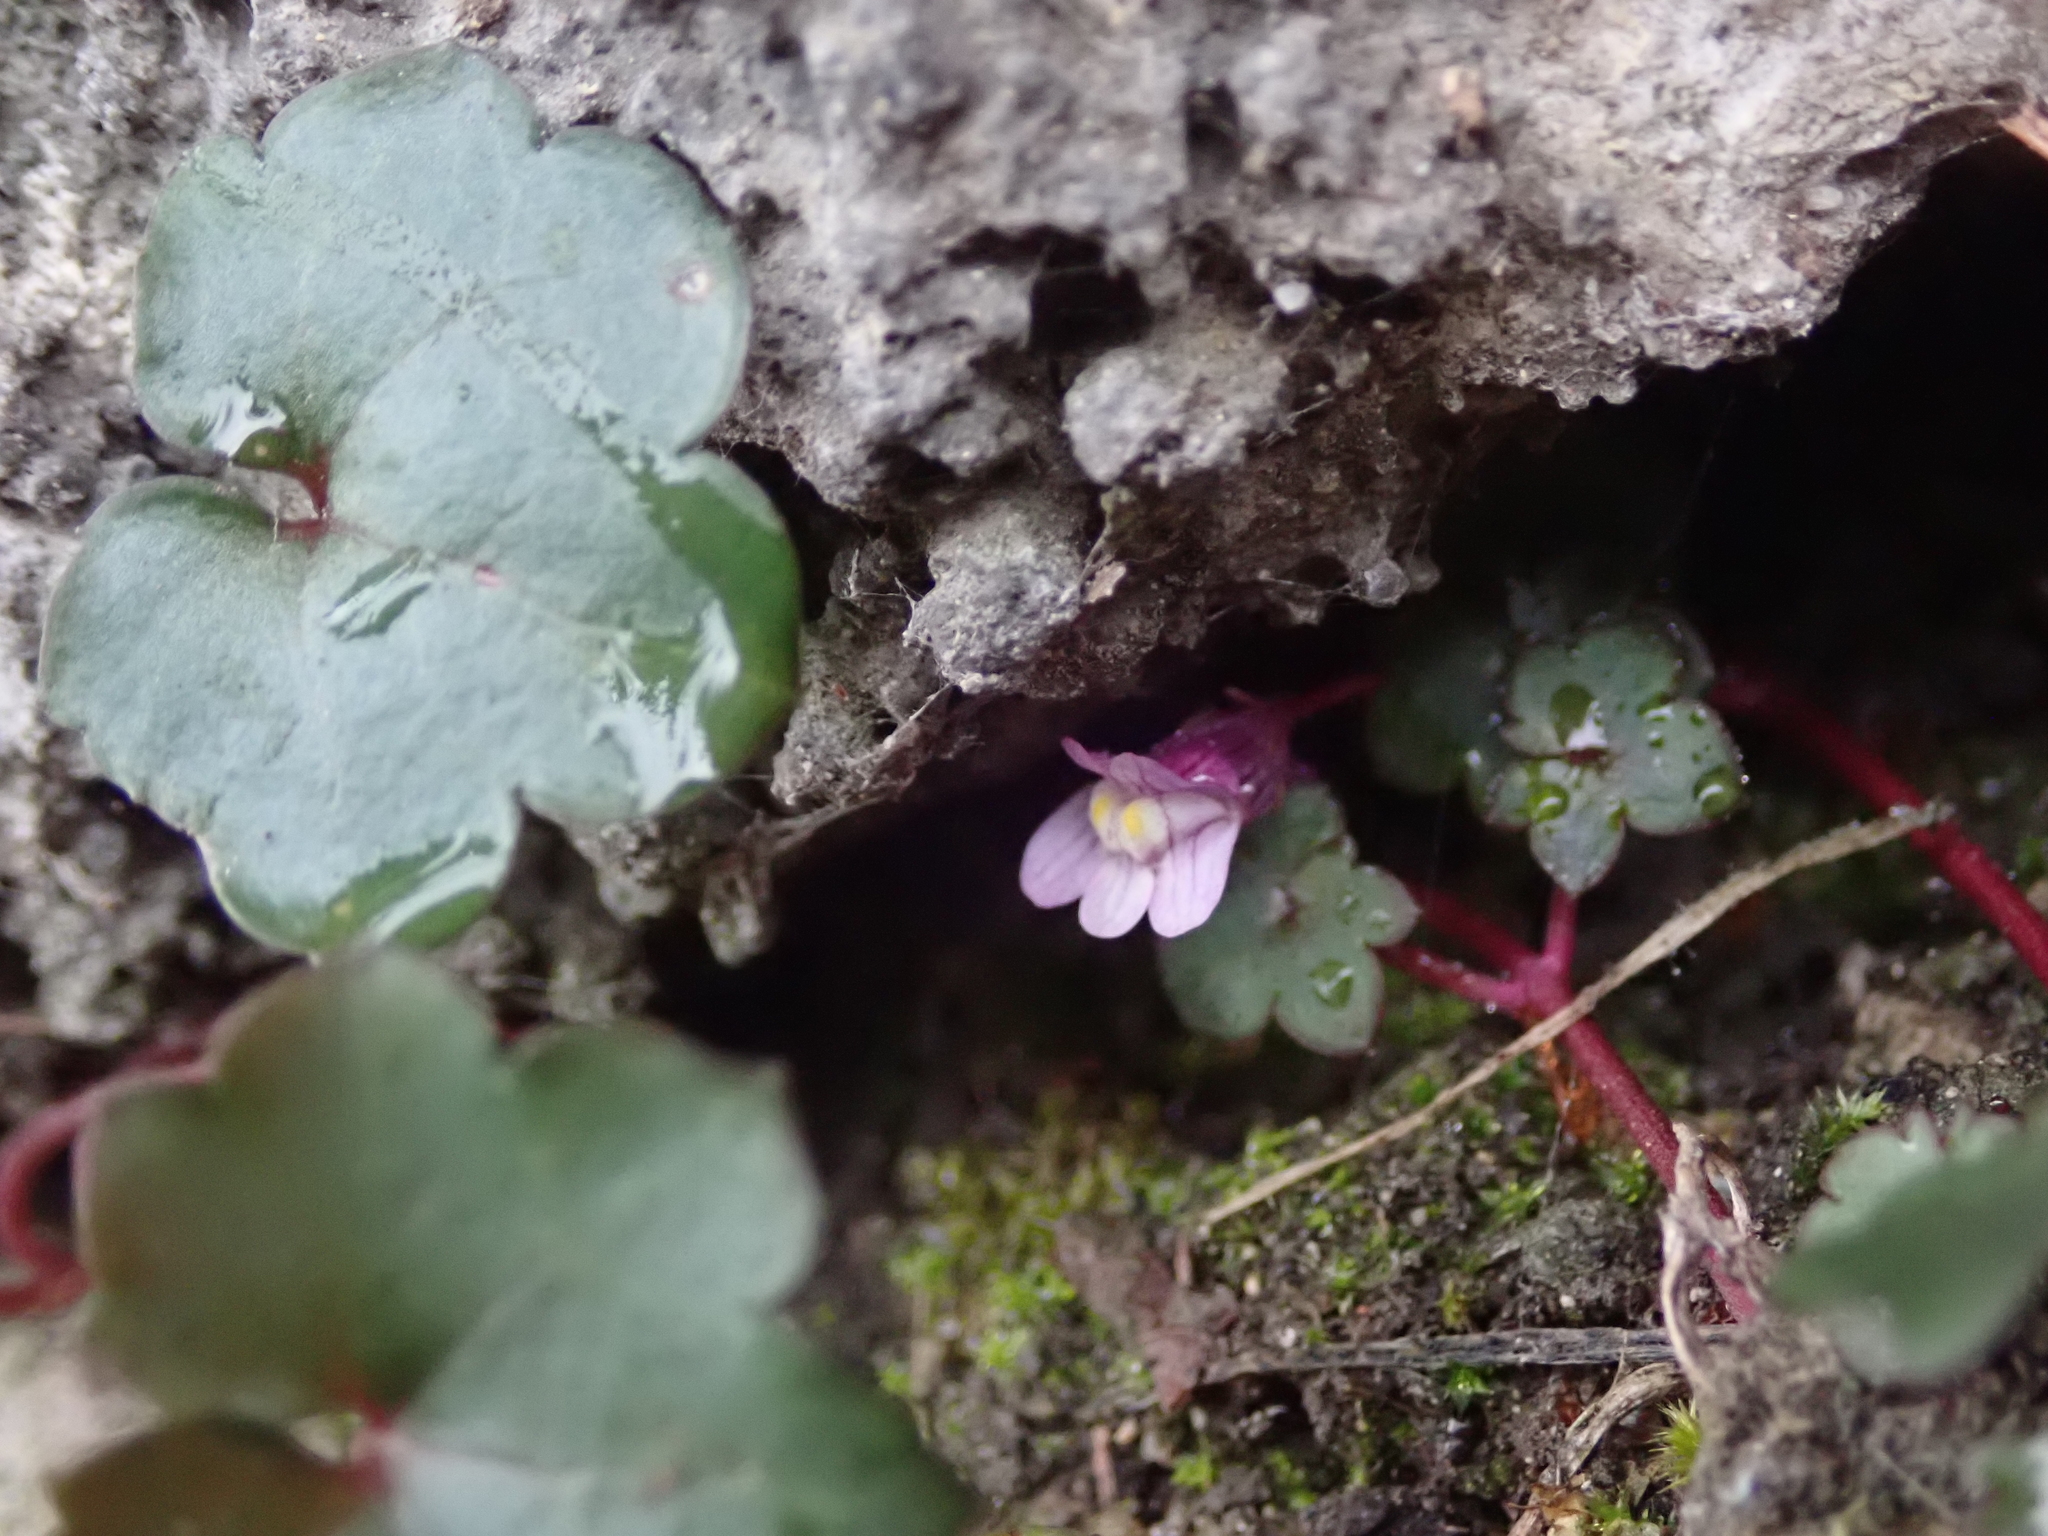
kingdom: Plantae
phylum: Tracheophyta
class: Magnoliopsida
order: Lamiales
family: Plantaginaceae
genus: Cymbalaria
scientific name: Cymbalaria muralis
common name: Ivy-leaved toadflax
